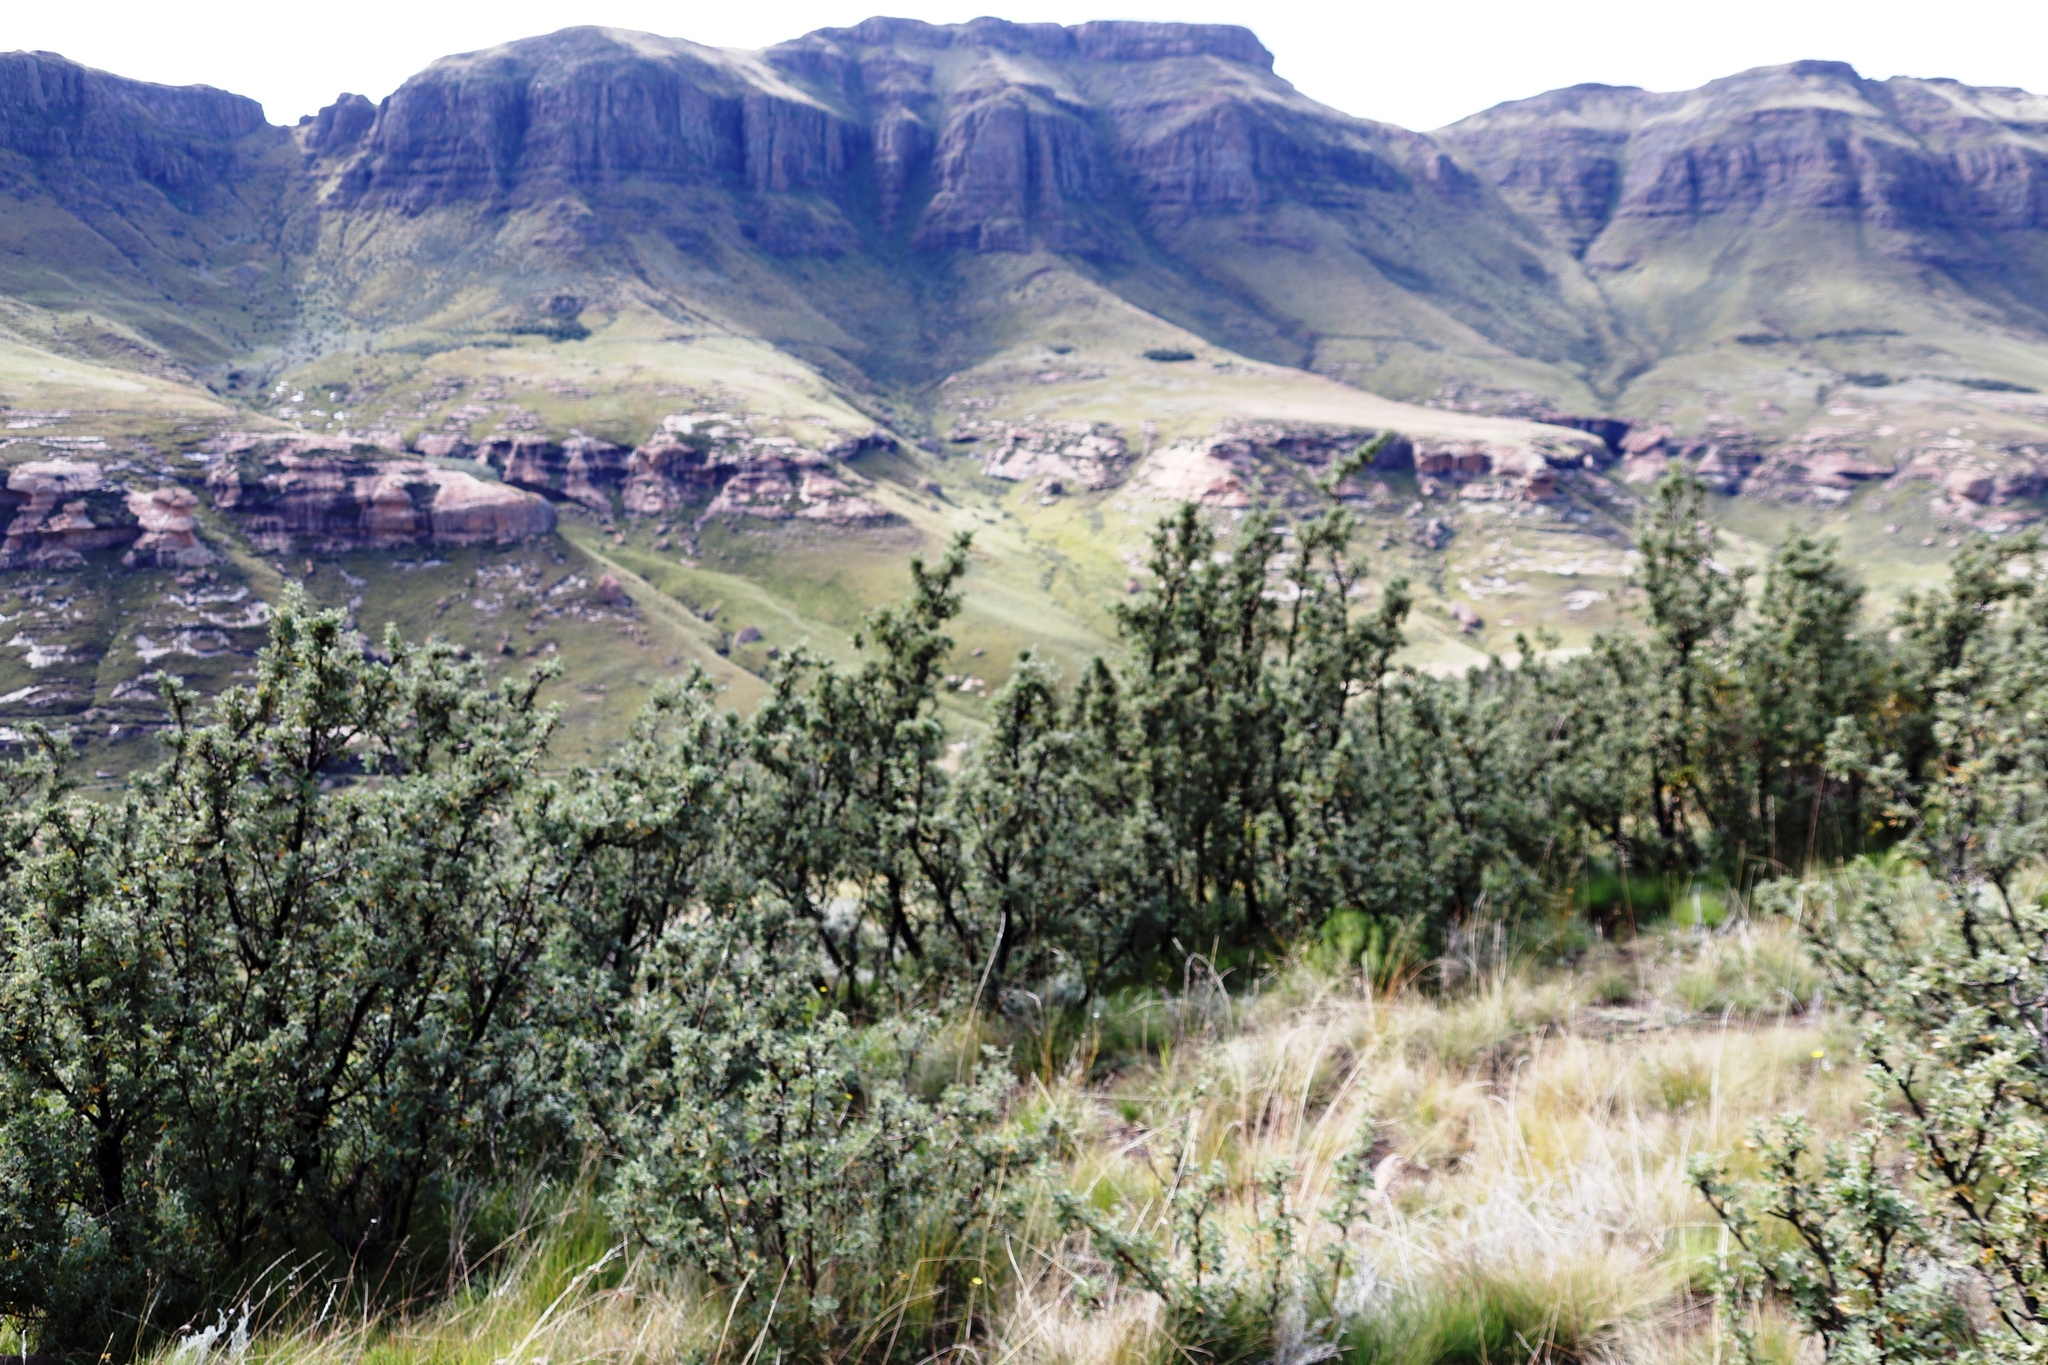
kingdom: Plantae
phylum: Tracheophyta
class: Magnoliopsida
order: Rosales
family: Rosaceae
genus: Leucosidea
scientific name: Leucosidea sericea
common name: Oldwood
